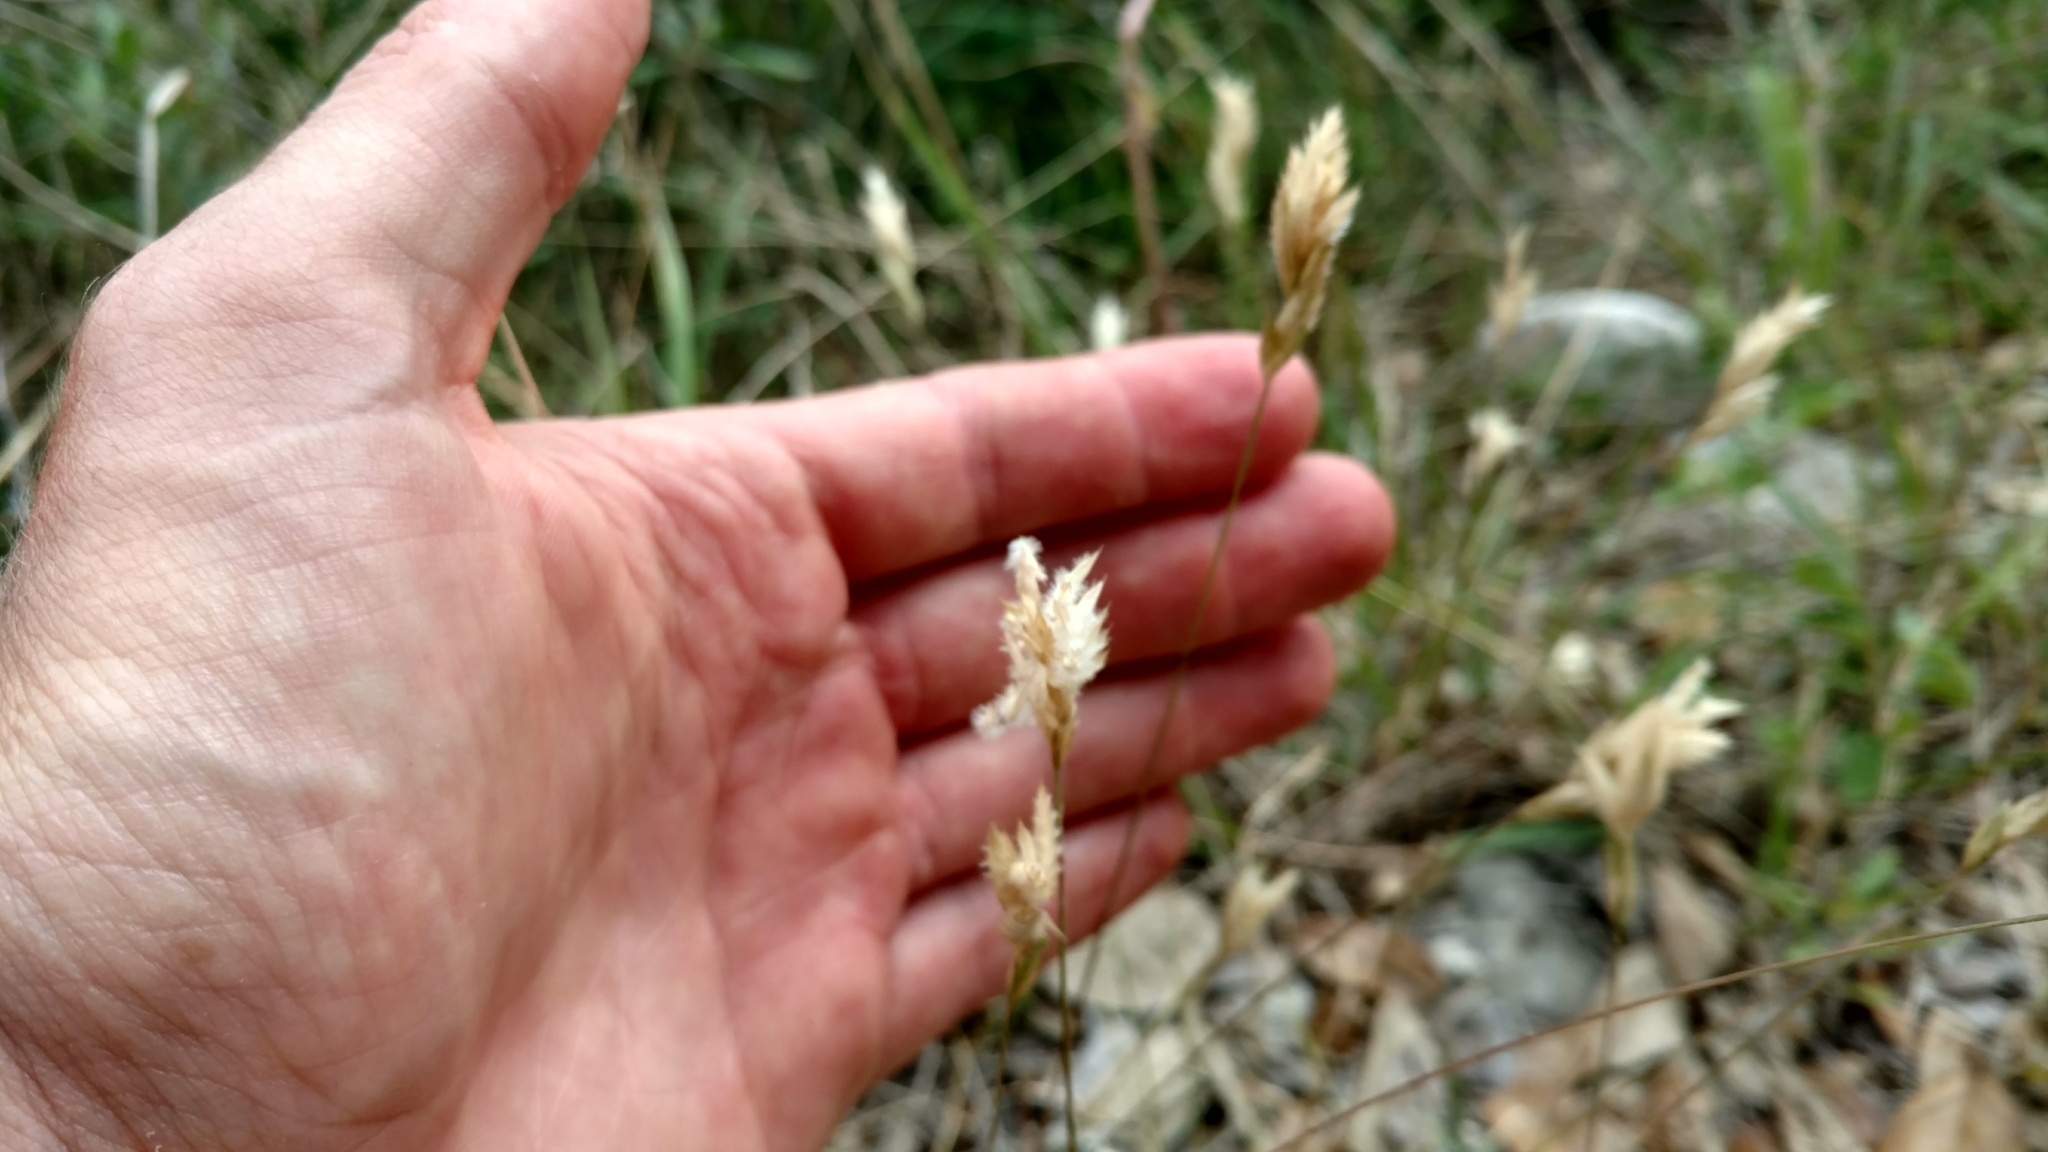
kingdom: Plantae
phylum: Tracheophyta
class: Liliopsida
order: Poales
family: Poaceae
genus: Erioneuron
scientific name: Erioneuron pilosum
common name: Hairy woolly grass
